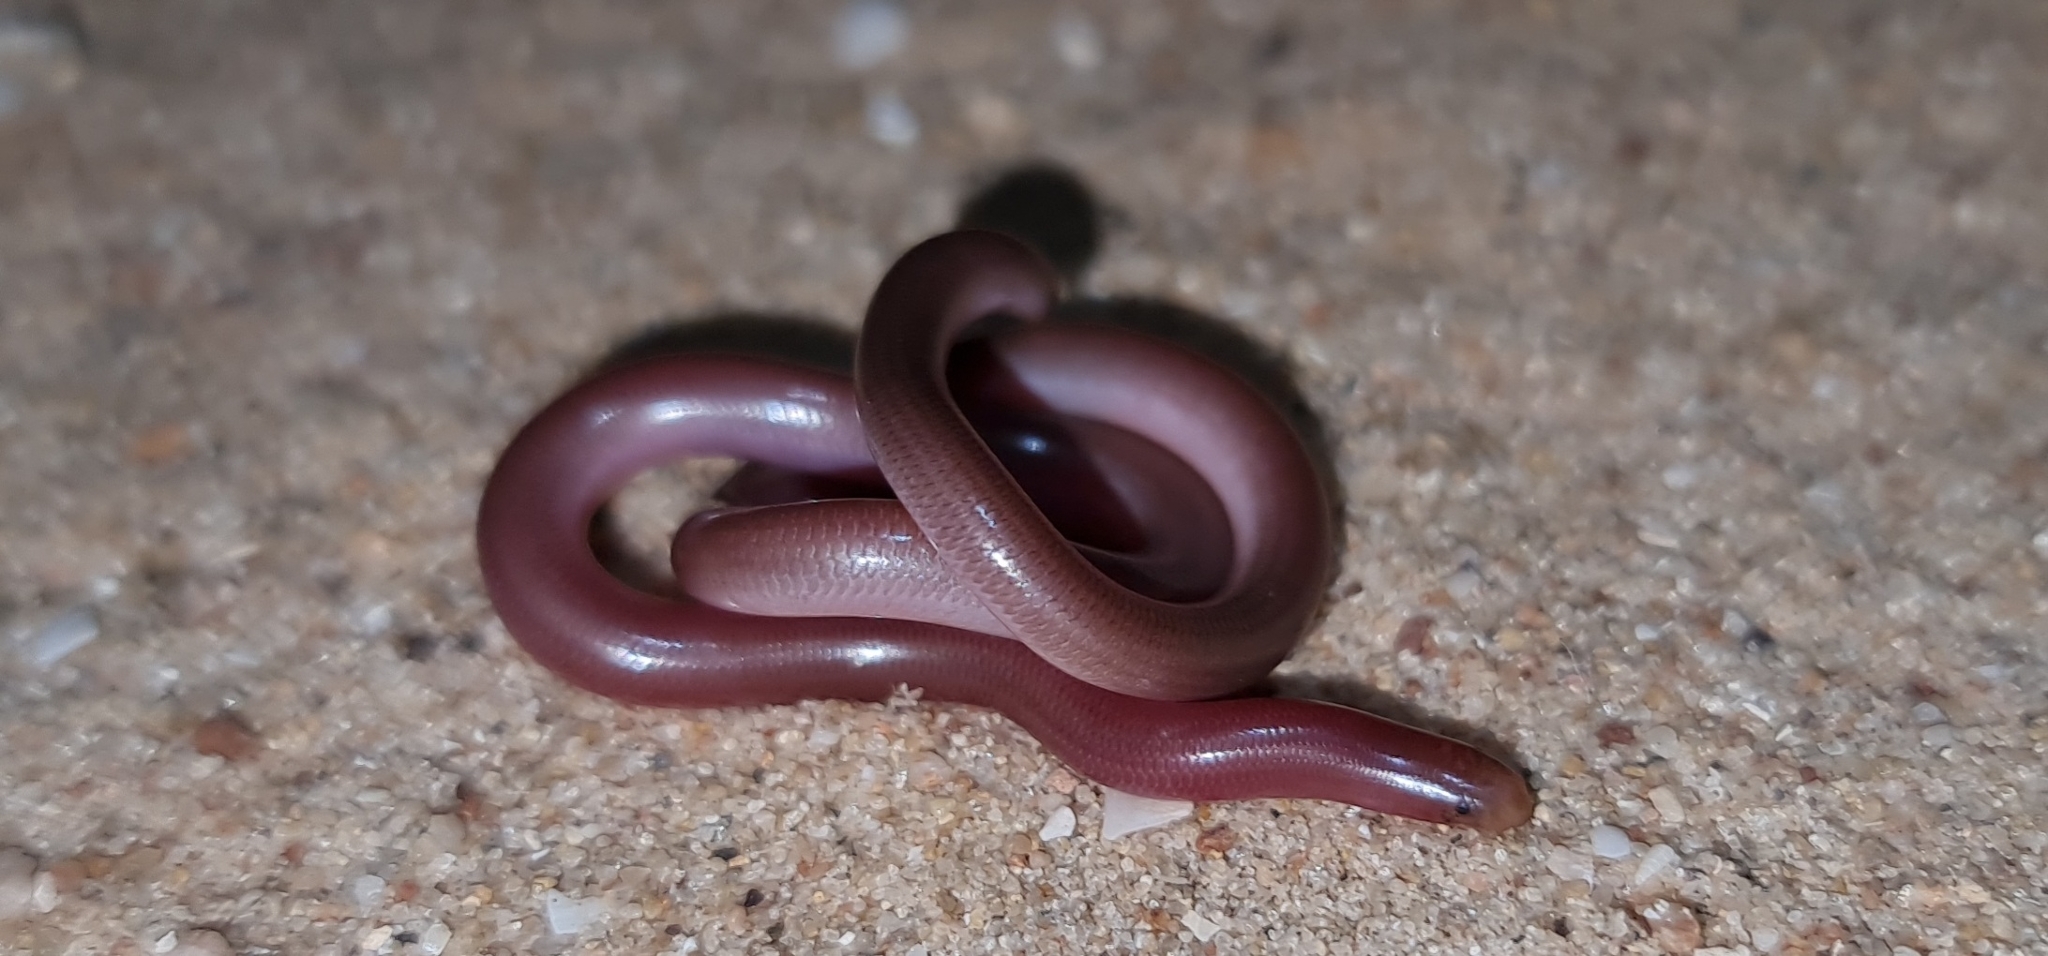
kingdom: Animalia
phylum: Chordata
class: Squamata
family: Typhlopidae
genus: Anilios
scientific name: Anilios bituberculatus
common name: Prong-snouted blind snake
